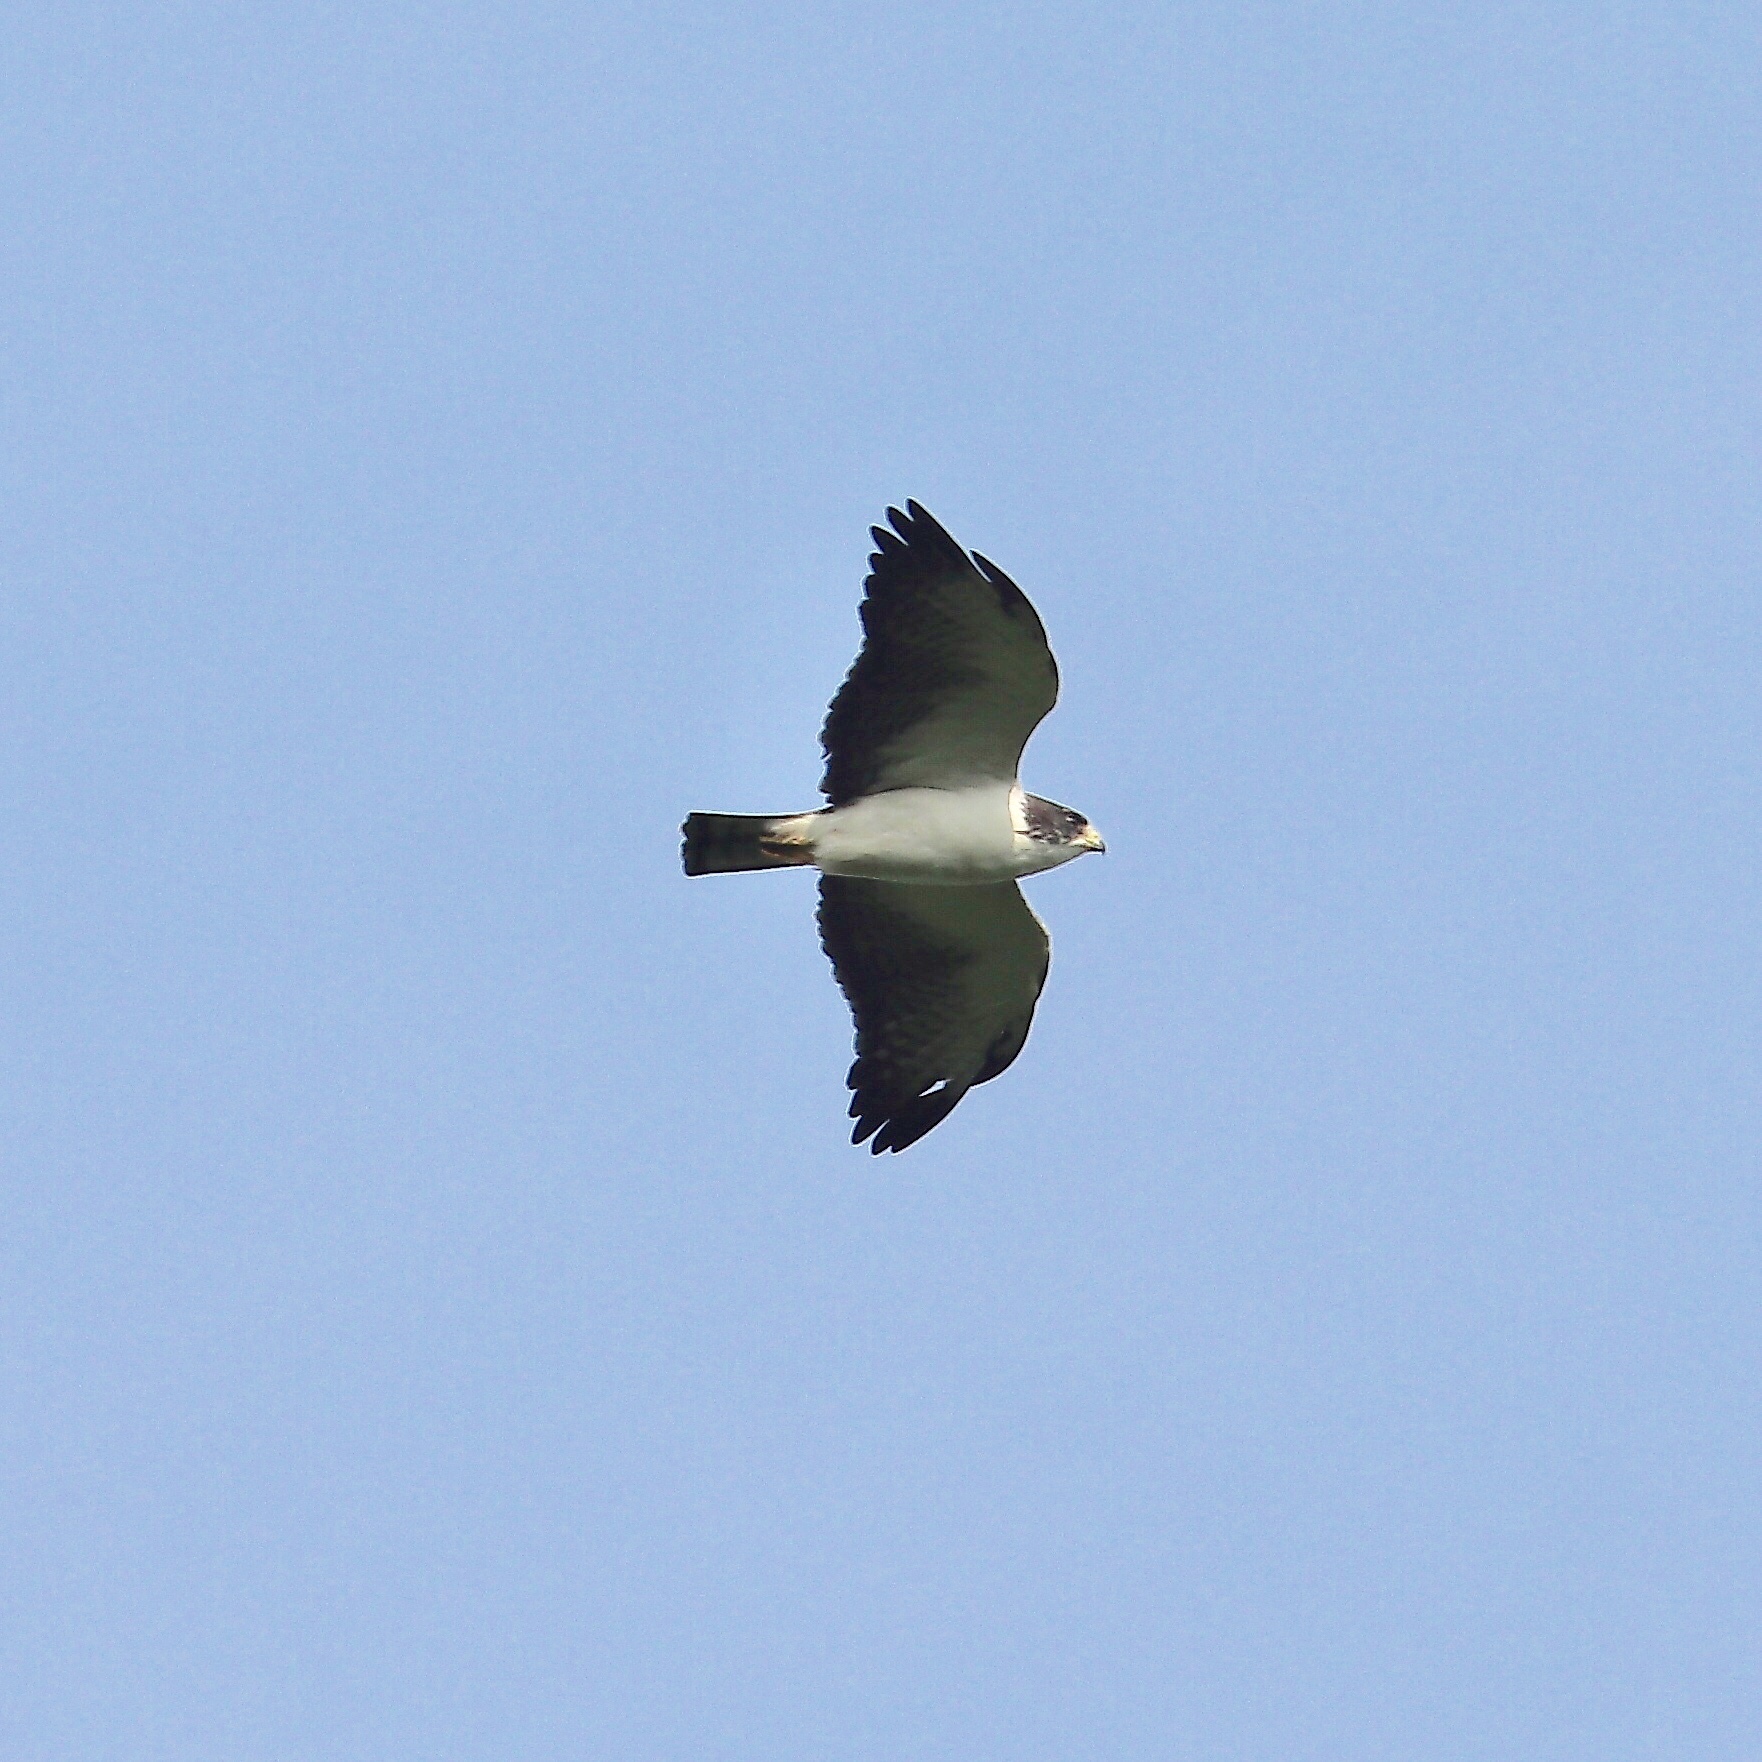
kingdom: Animalia
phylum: Chordata
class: Aves
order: Accipitriformes
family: Accipitridae
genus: Buteo
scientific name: Buteo brachyurus
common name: Short-tailed hawk
